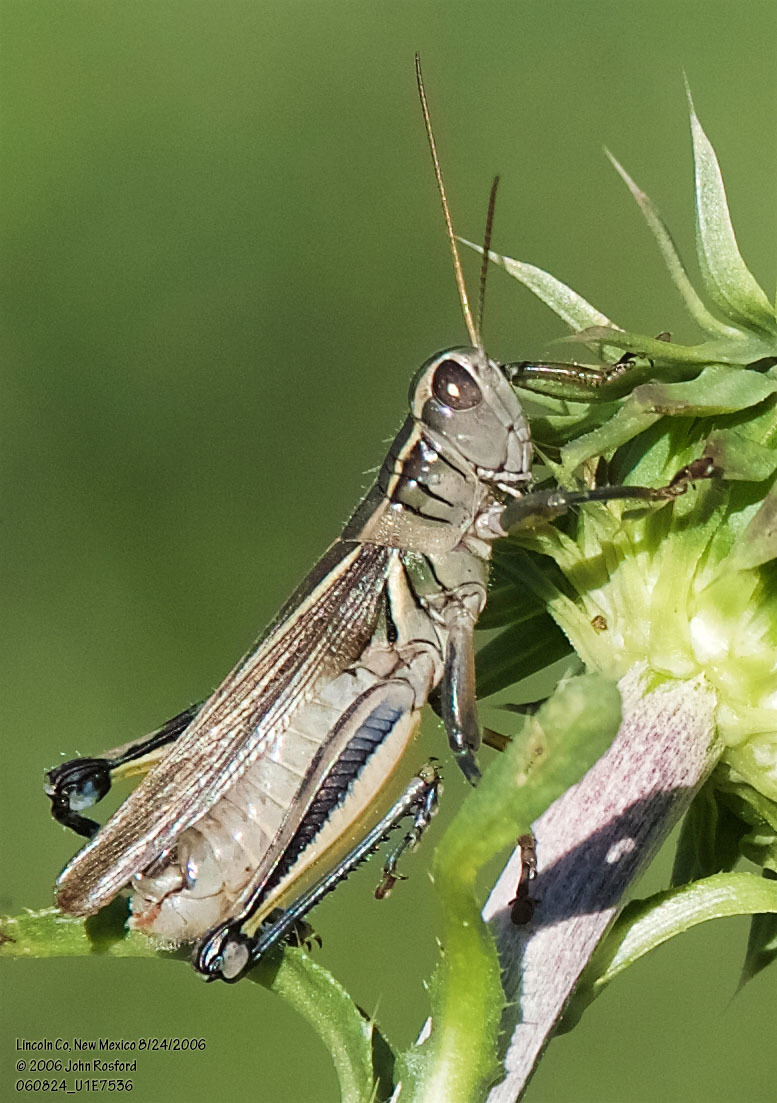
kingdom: Animalia
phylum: Arthropoda
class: Insecta
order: Orthoptera
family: Acrididae
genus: Melanoplus
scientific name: Melanoplus bivittatus
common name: Two-striped grasshopper
